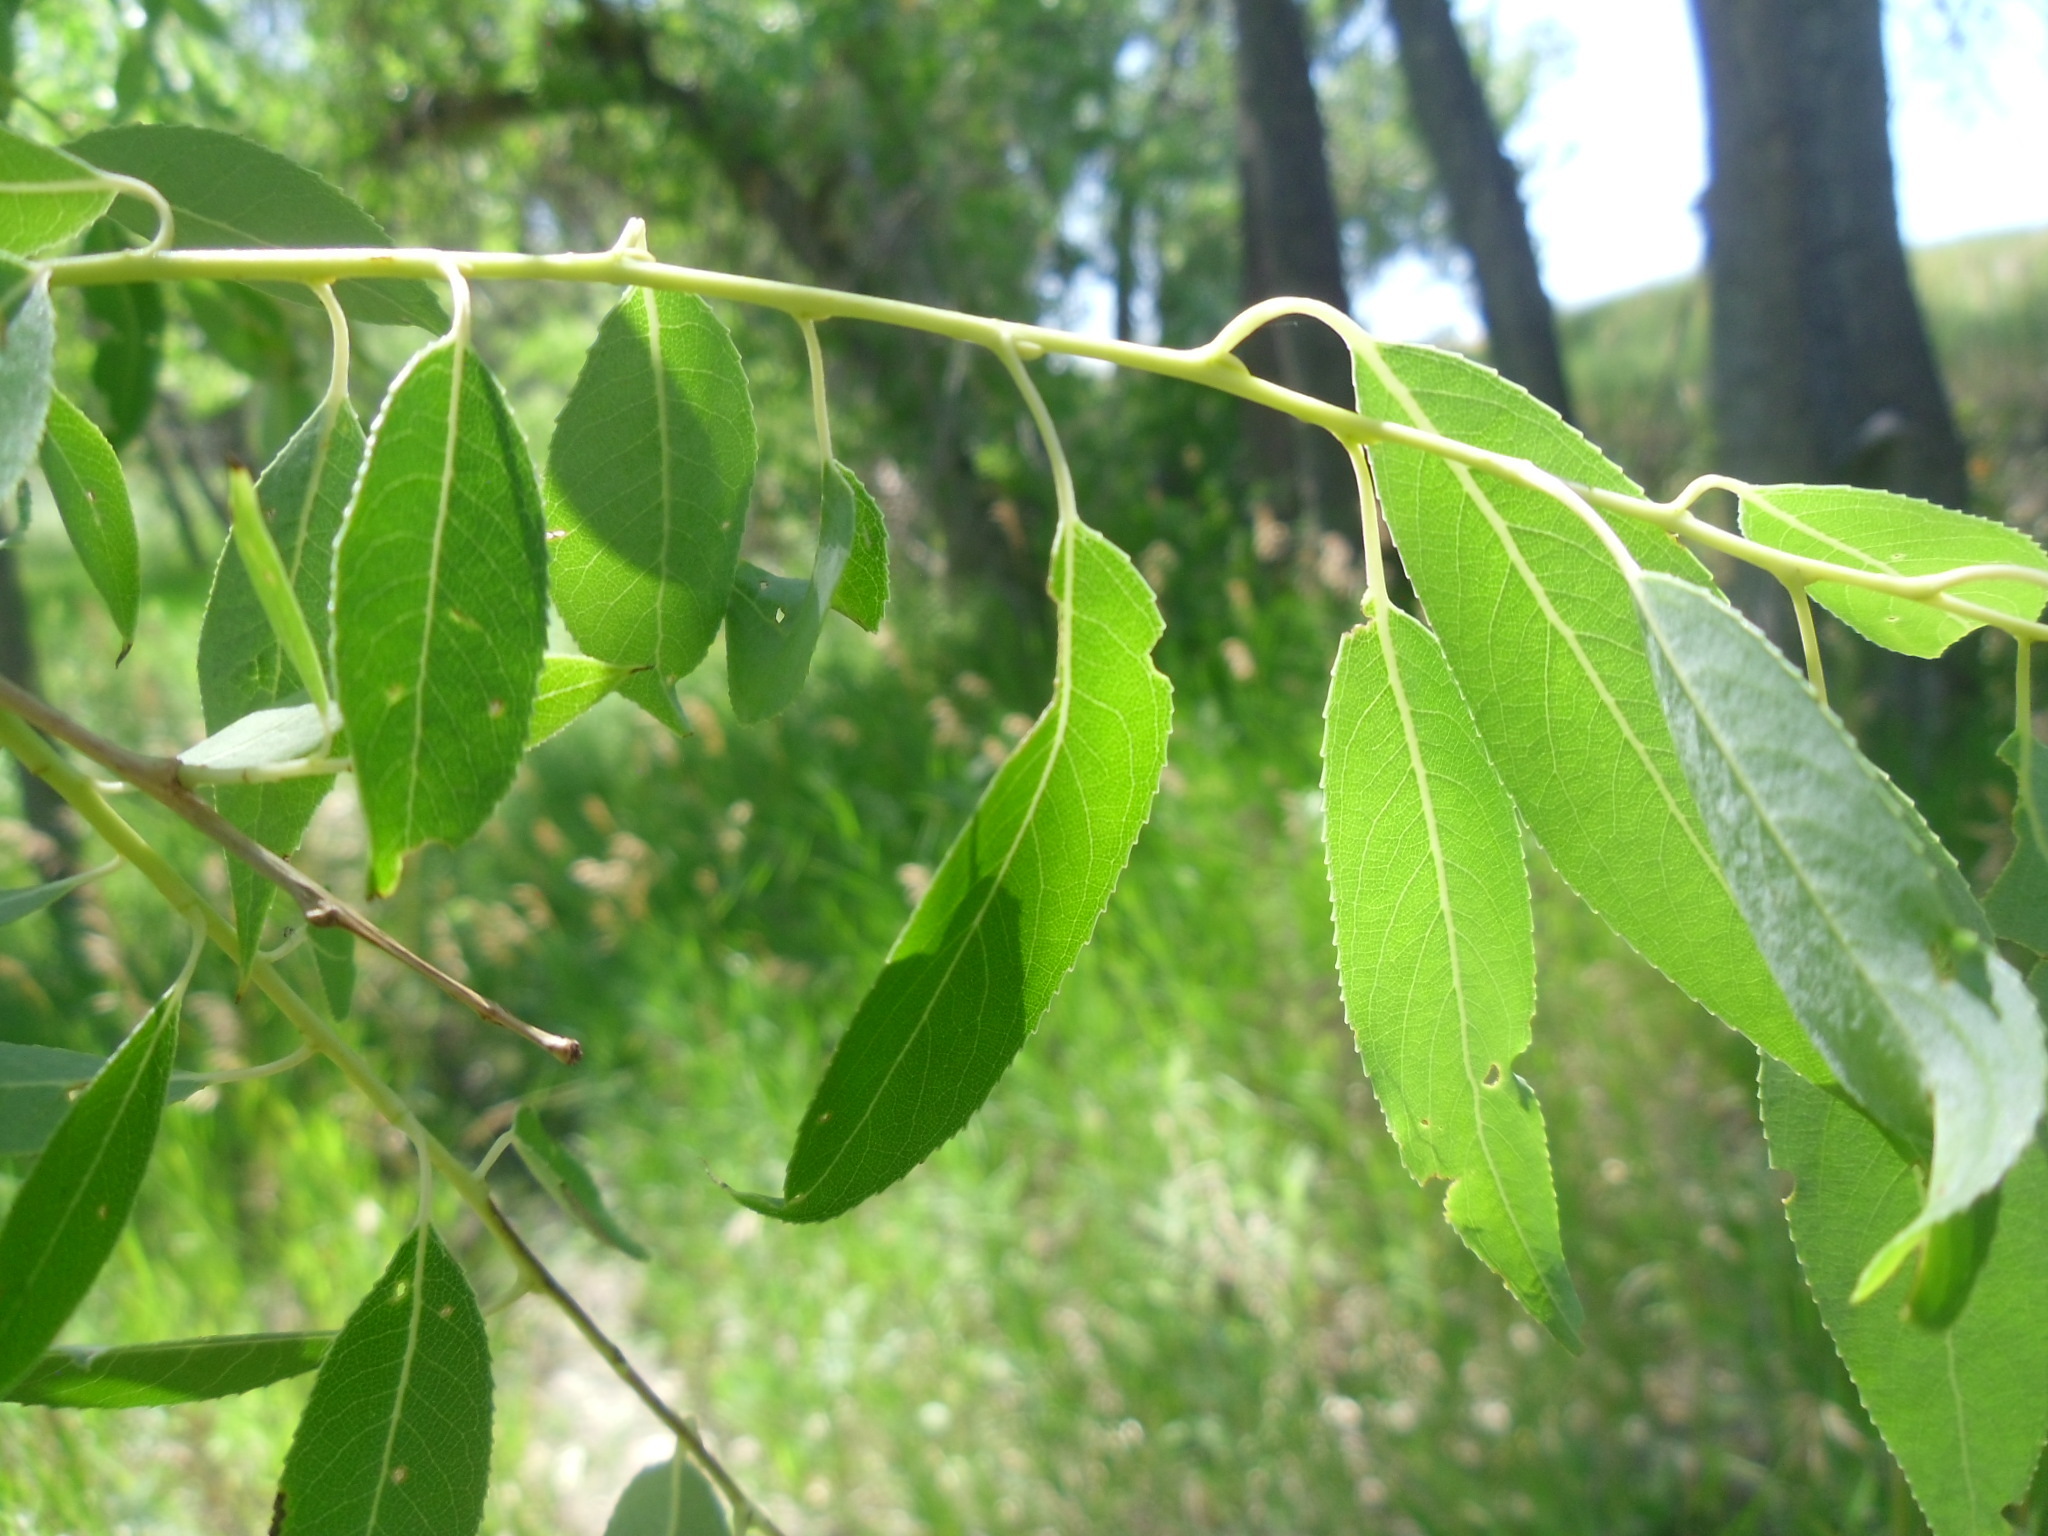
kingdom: Plantae
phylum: Tracheophyta
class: Magnoliopsida
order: Malpighiales
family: Salicaceae
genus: Salix
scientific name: Salix amygdaloides
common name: Peach leaf willow
